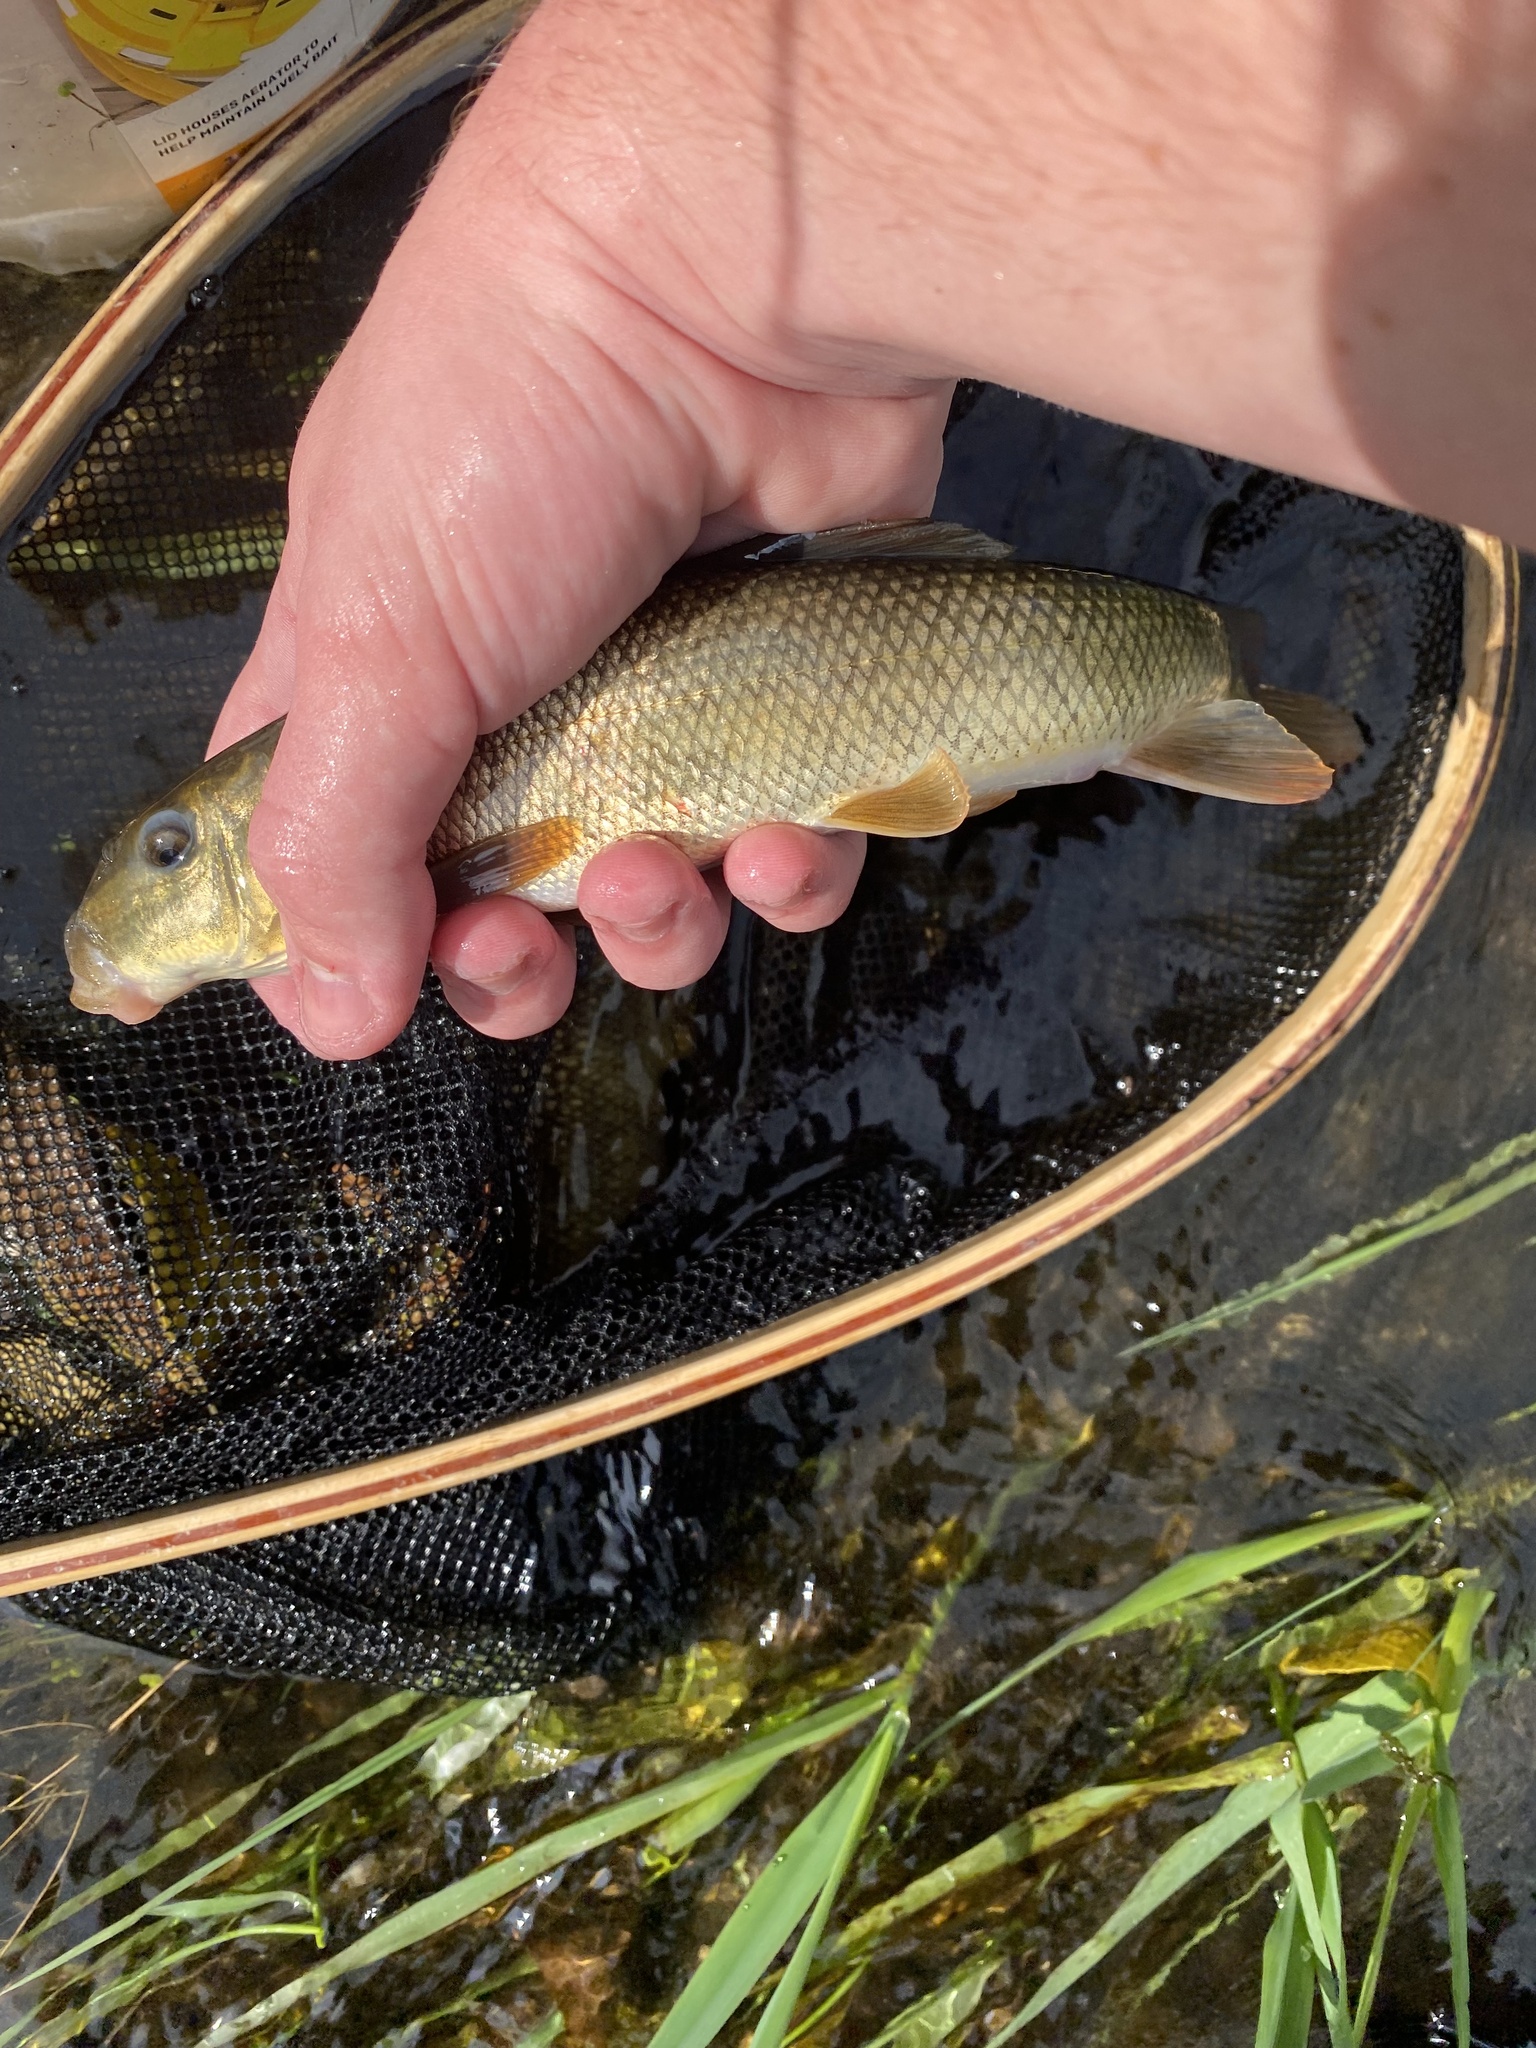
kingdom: Animalia
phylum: Chordata
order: Cypriniformes
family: Catostomidae
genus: Catostomus
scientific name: Catostomus commersonii
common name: White sucker
